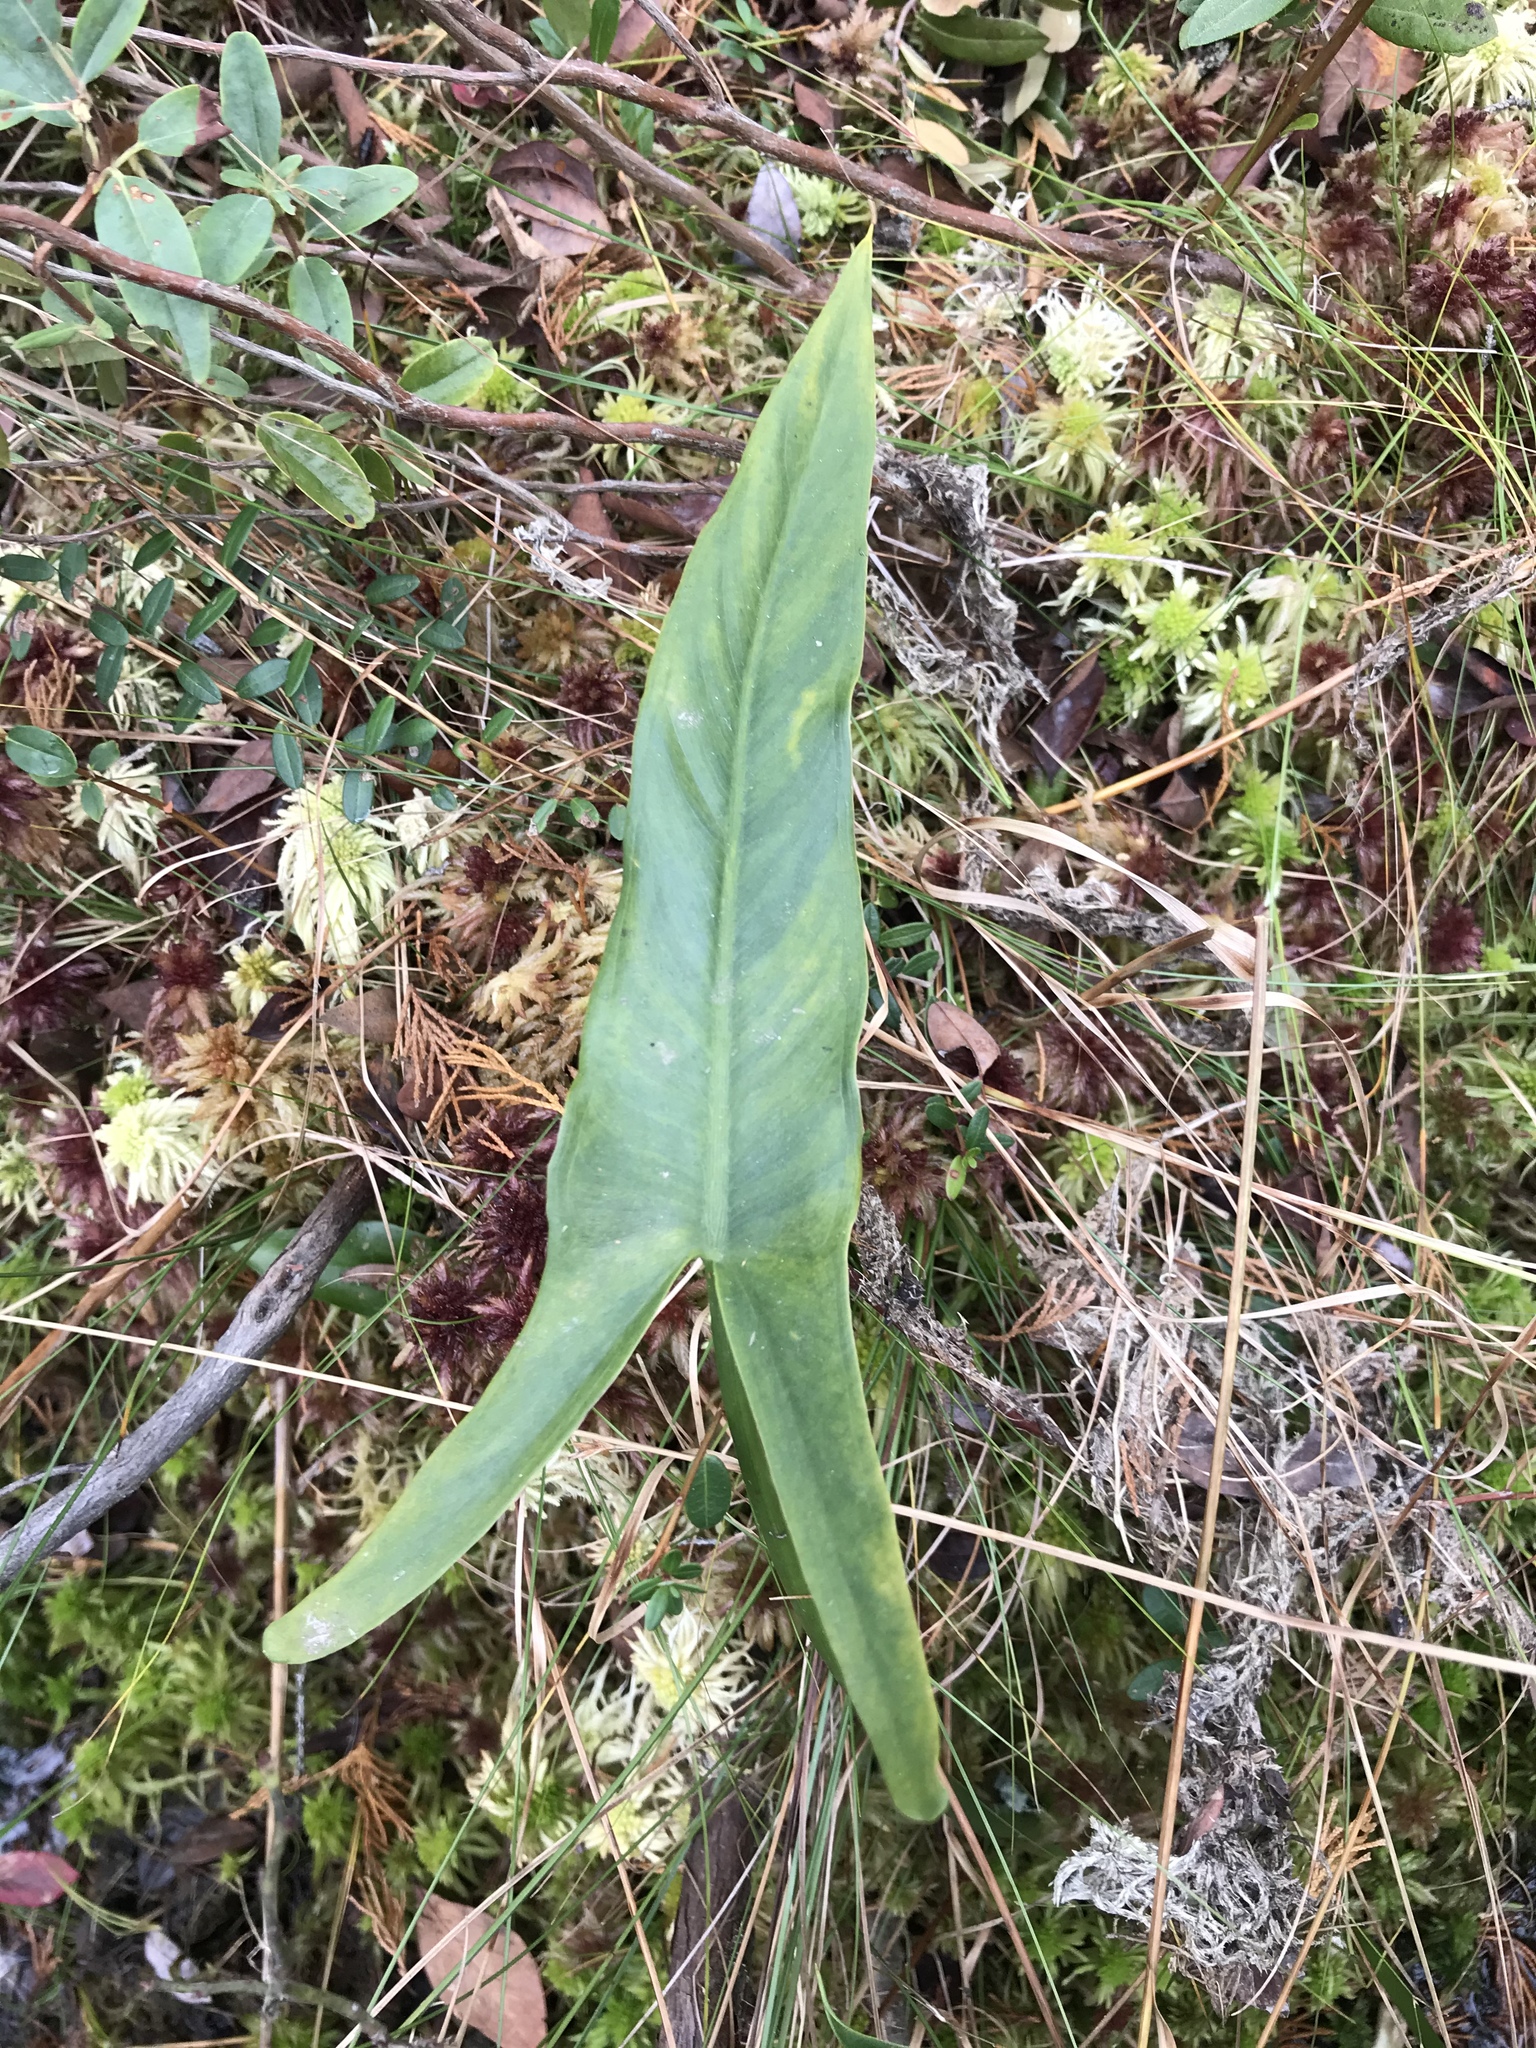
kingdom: Plantae
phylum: Tracheophyta
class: Liliopsida
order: Alismatales
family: Araceae
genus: Peltandra
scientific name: Peltandra virginica
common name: Arrow arum
